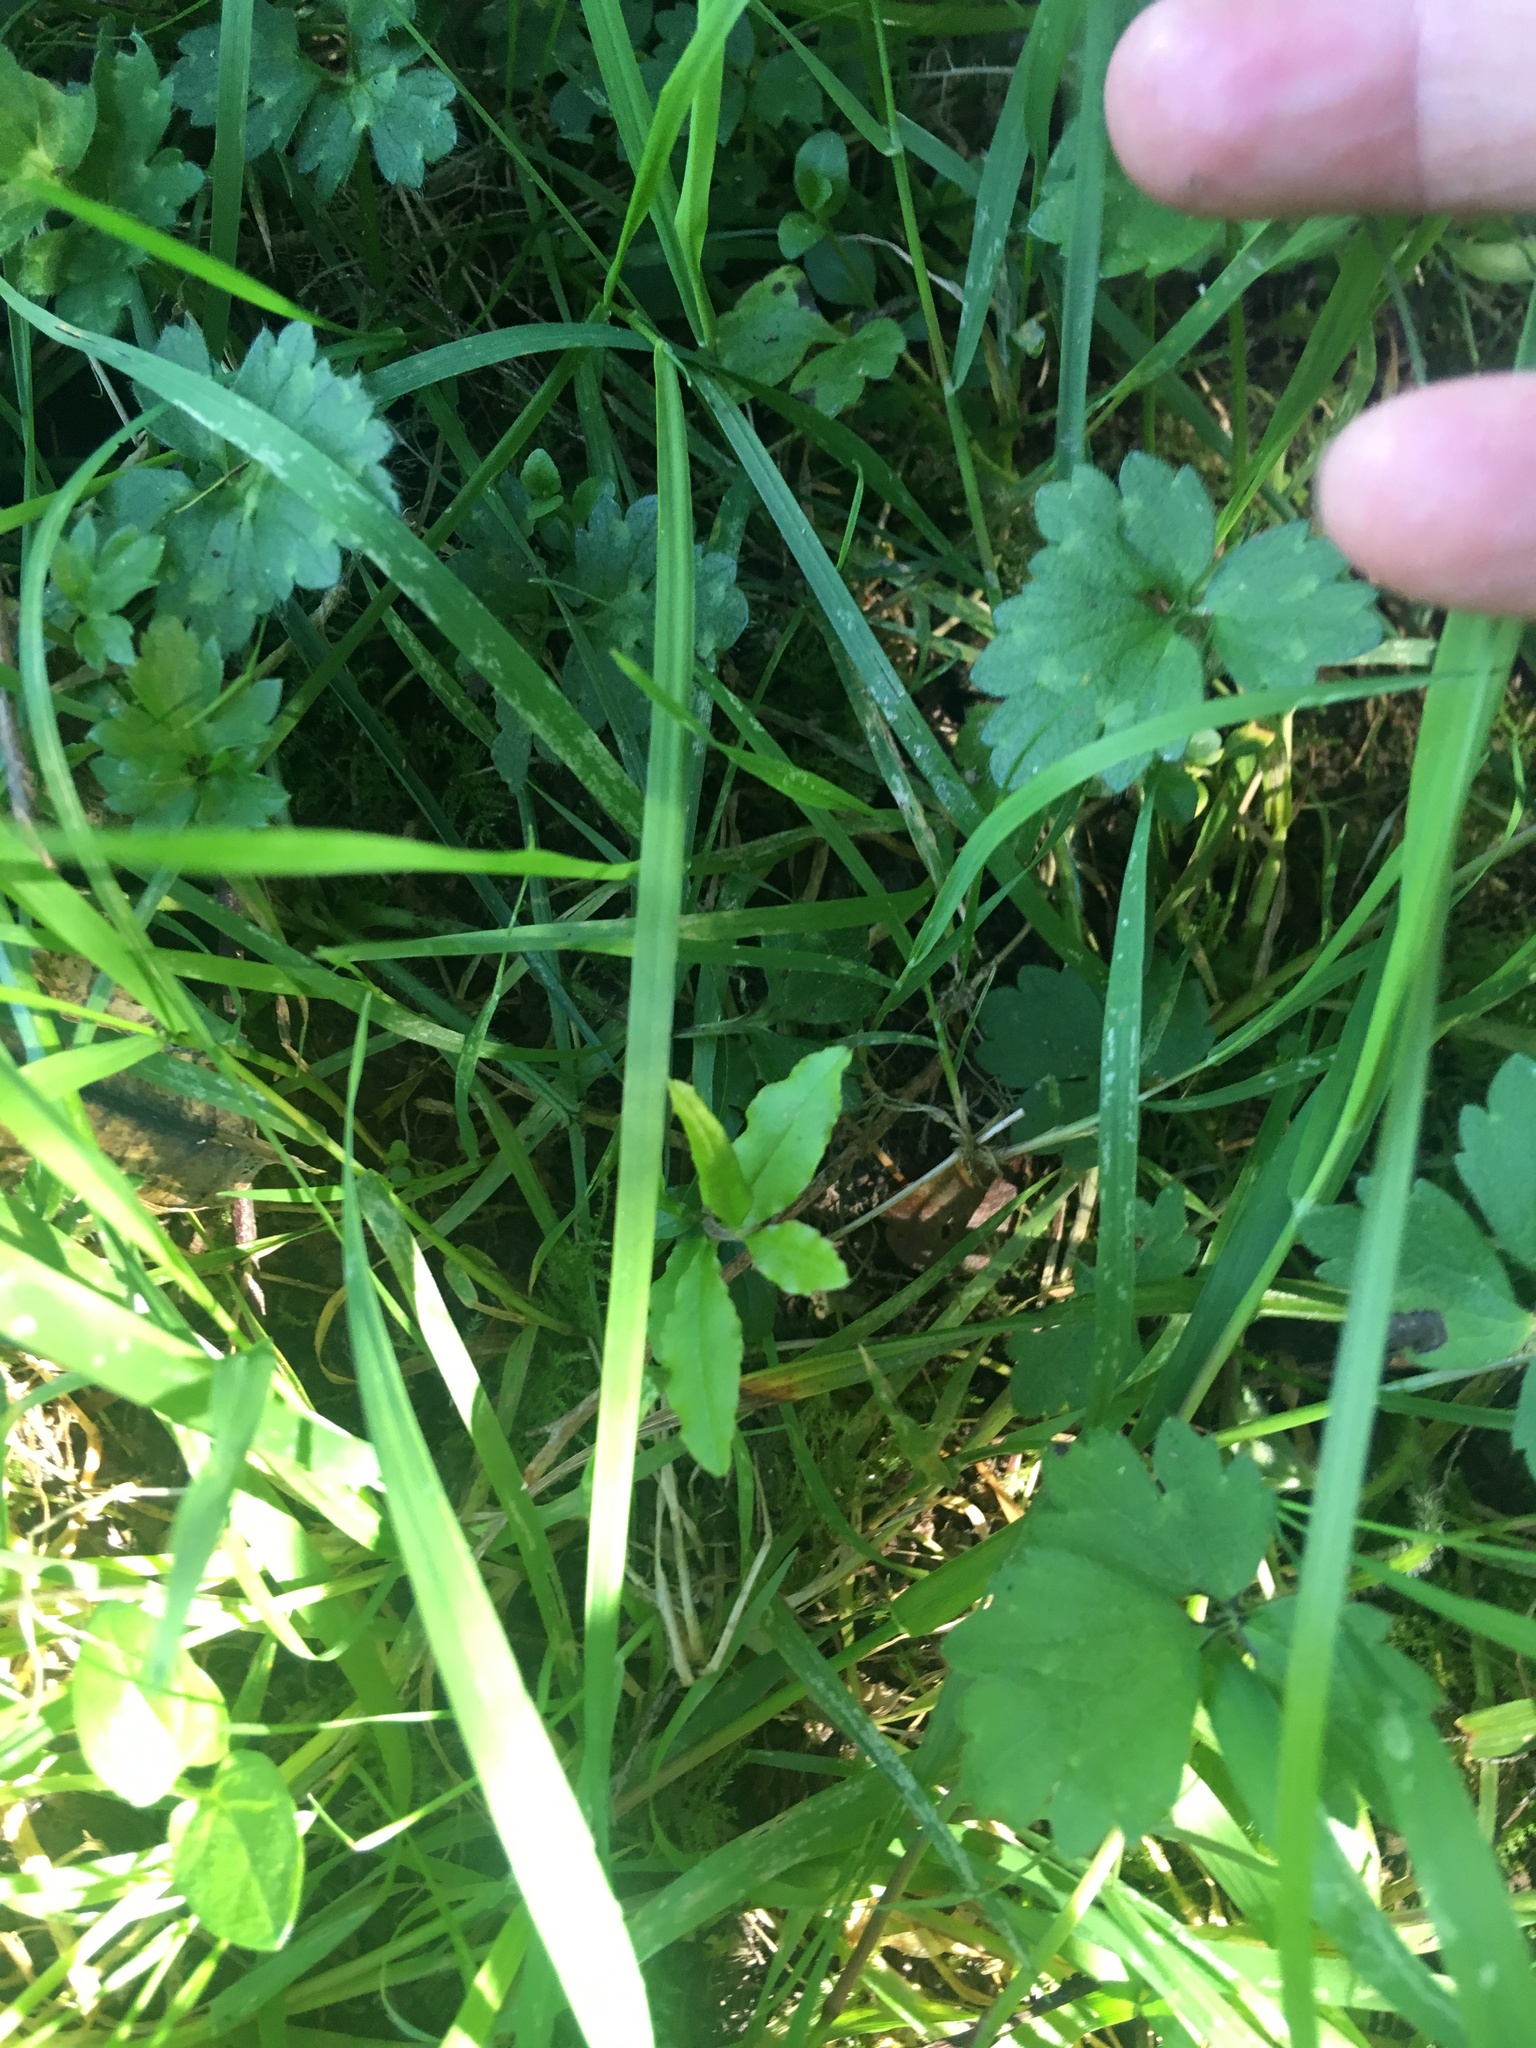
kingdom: Plantae
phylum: Tracheophyta
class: Magnoliopsida
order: Lamiales
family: Oleaceae
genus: Ligustrum
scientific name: Ligustrum sinense
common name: Chinese privet
